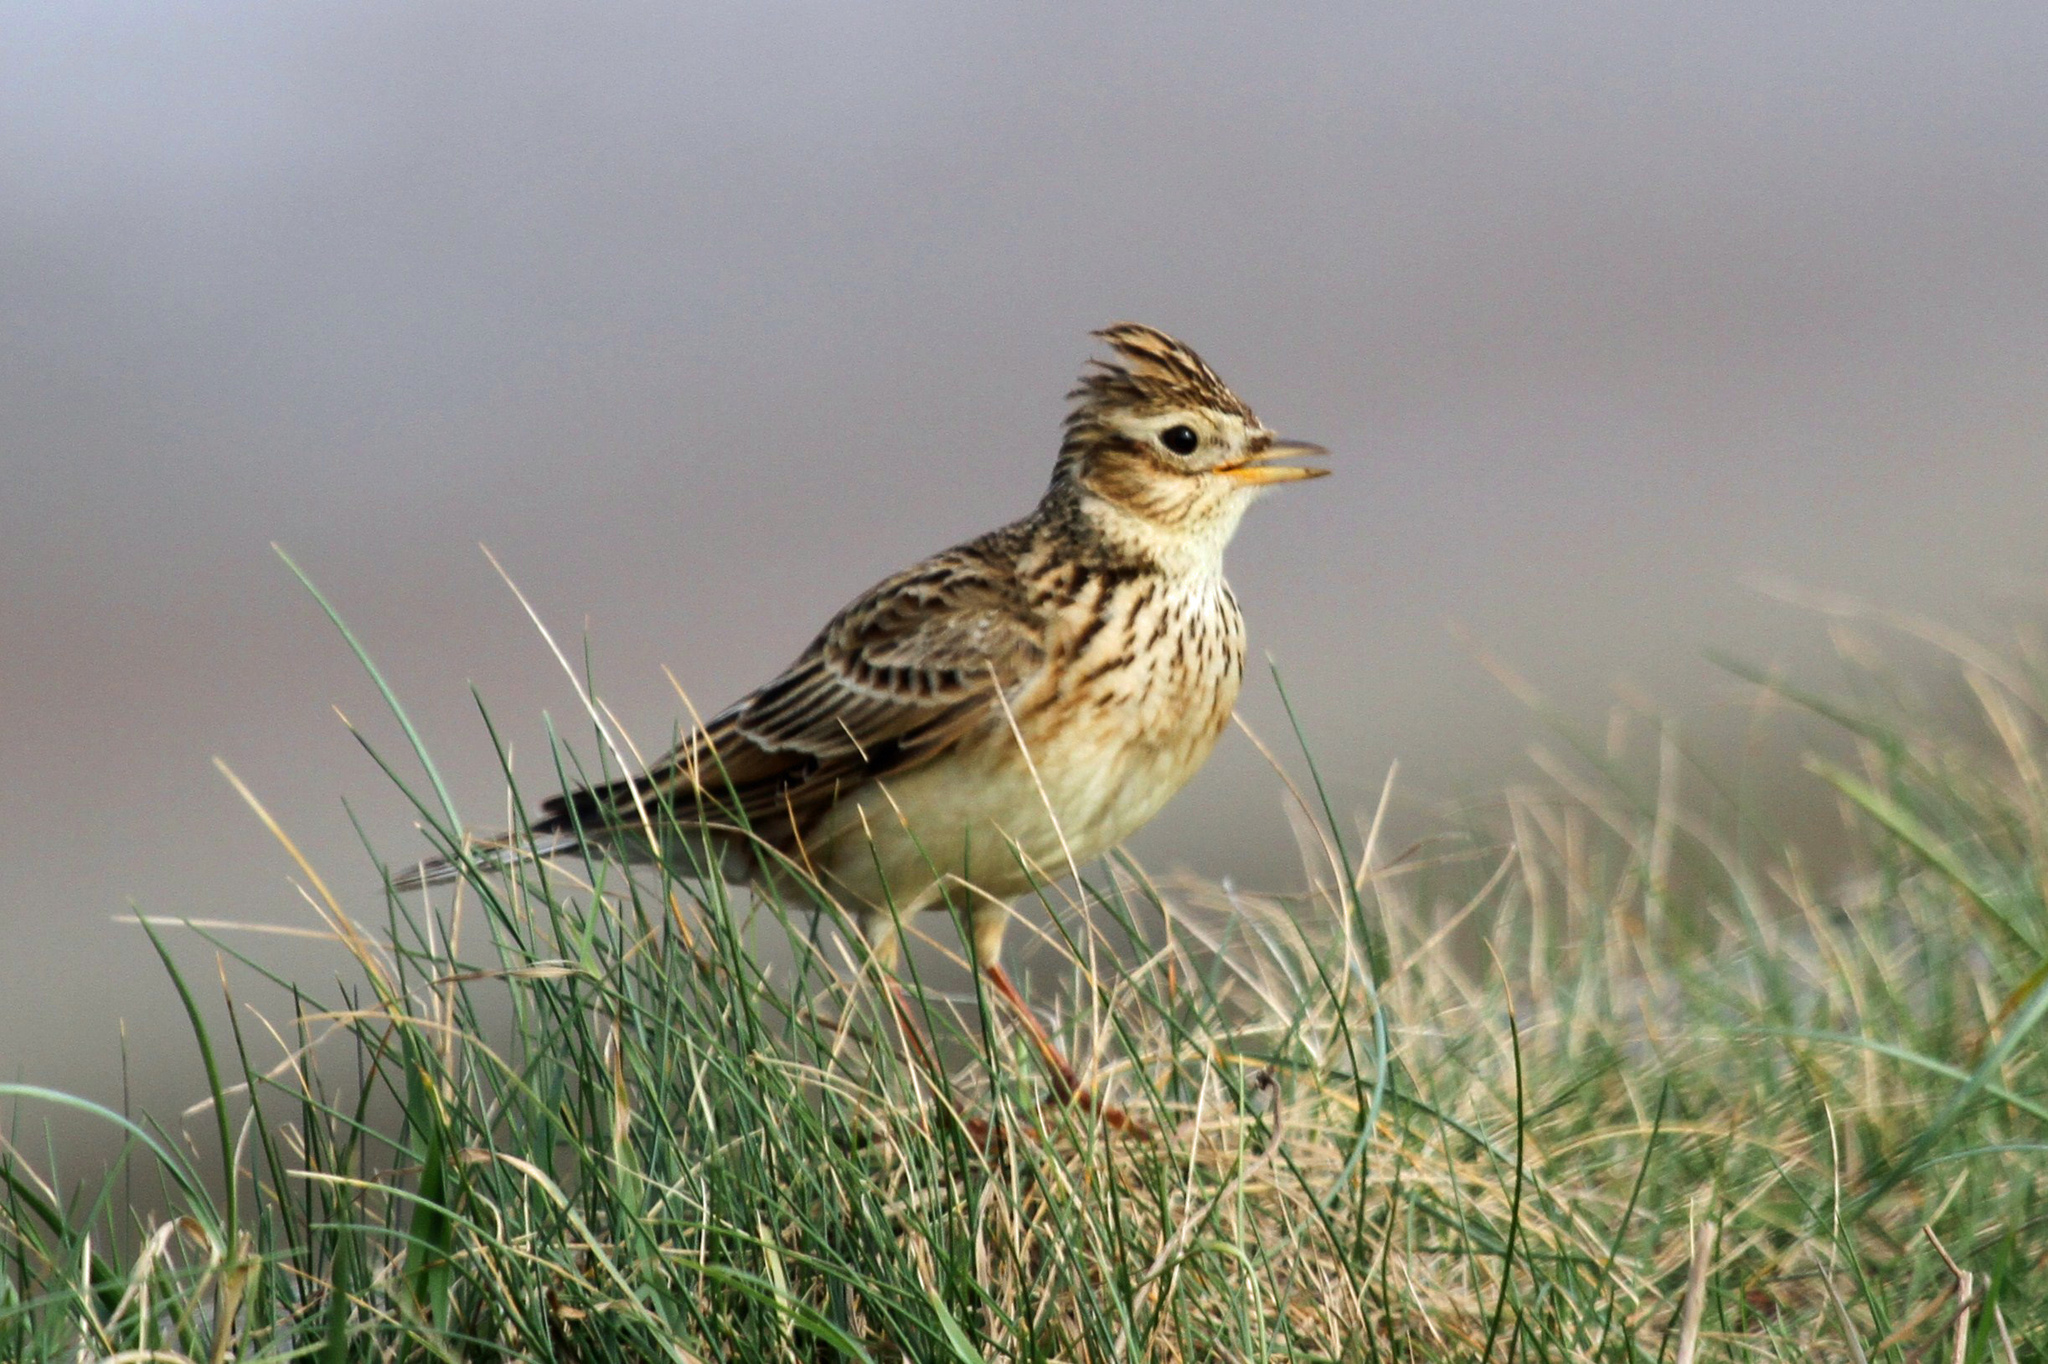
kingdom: Animalia
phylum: Chordata
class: Aves
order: Passeriformes
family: Alaudidae
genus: Alauda
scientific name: Alauda arvensis
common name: Eurasian skylark
